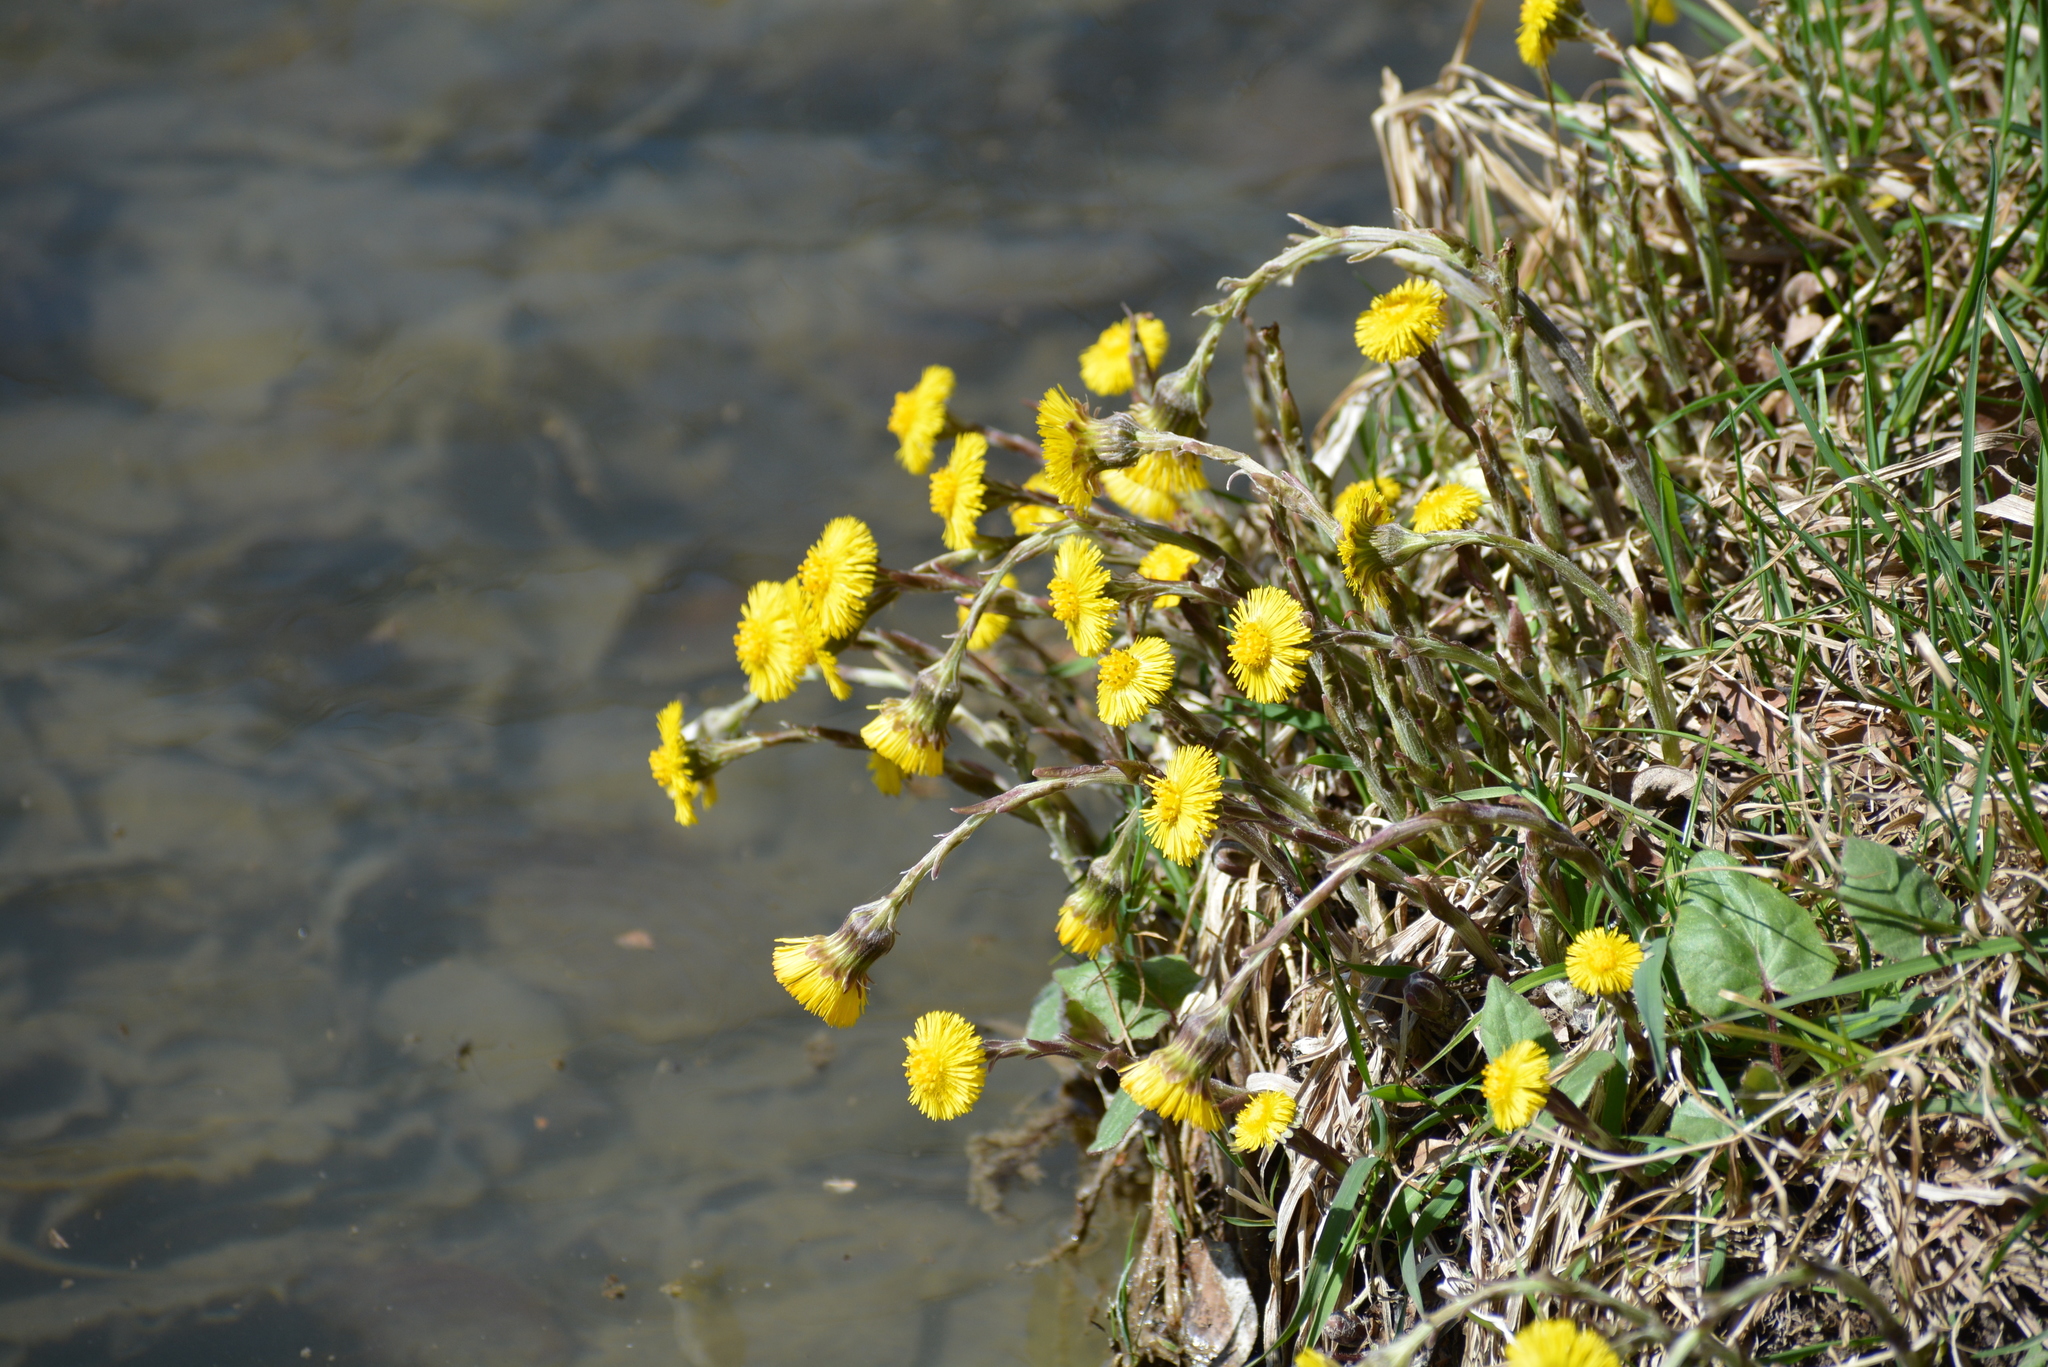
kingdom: Plantae
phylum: Tracheophyta
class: Magnoliopsida
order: Asterales
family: Asteraceae
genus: Tussilago
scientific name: Tussilago farfara
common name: Coltsfoot
